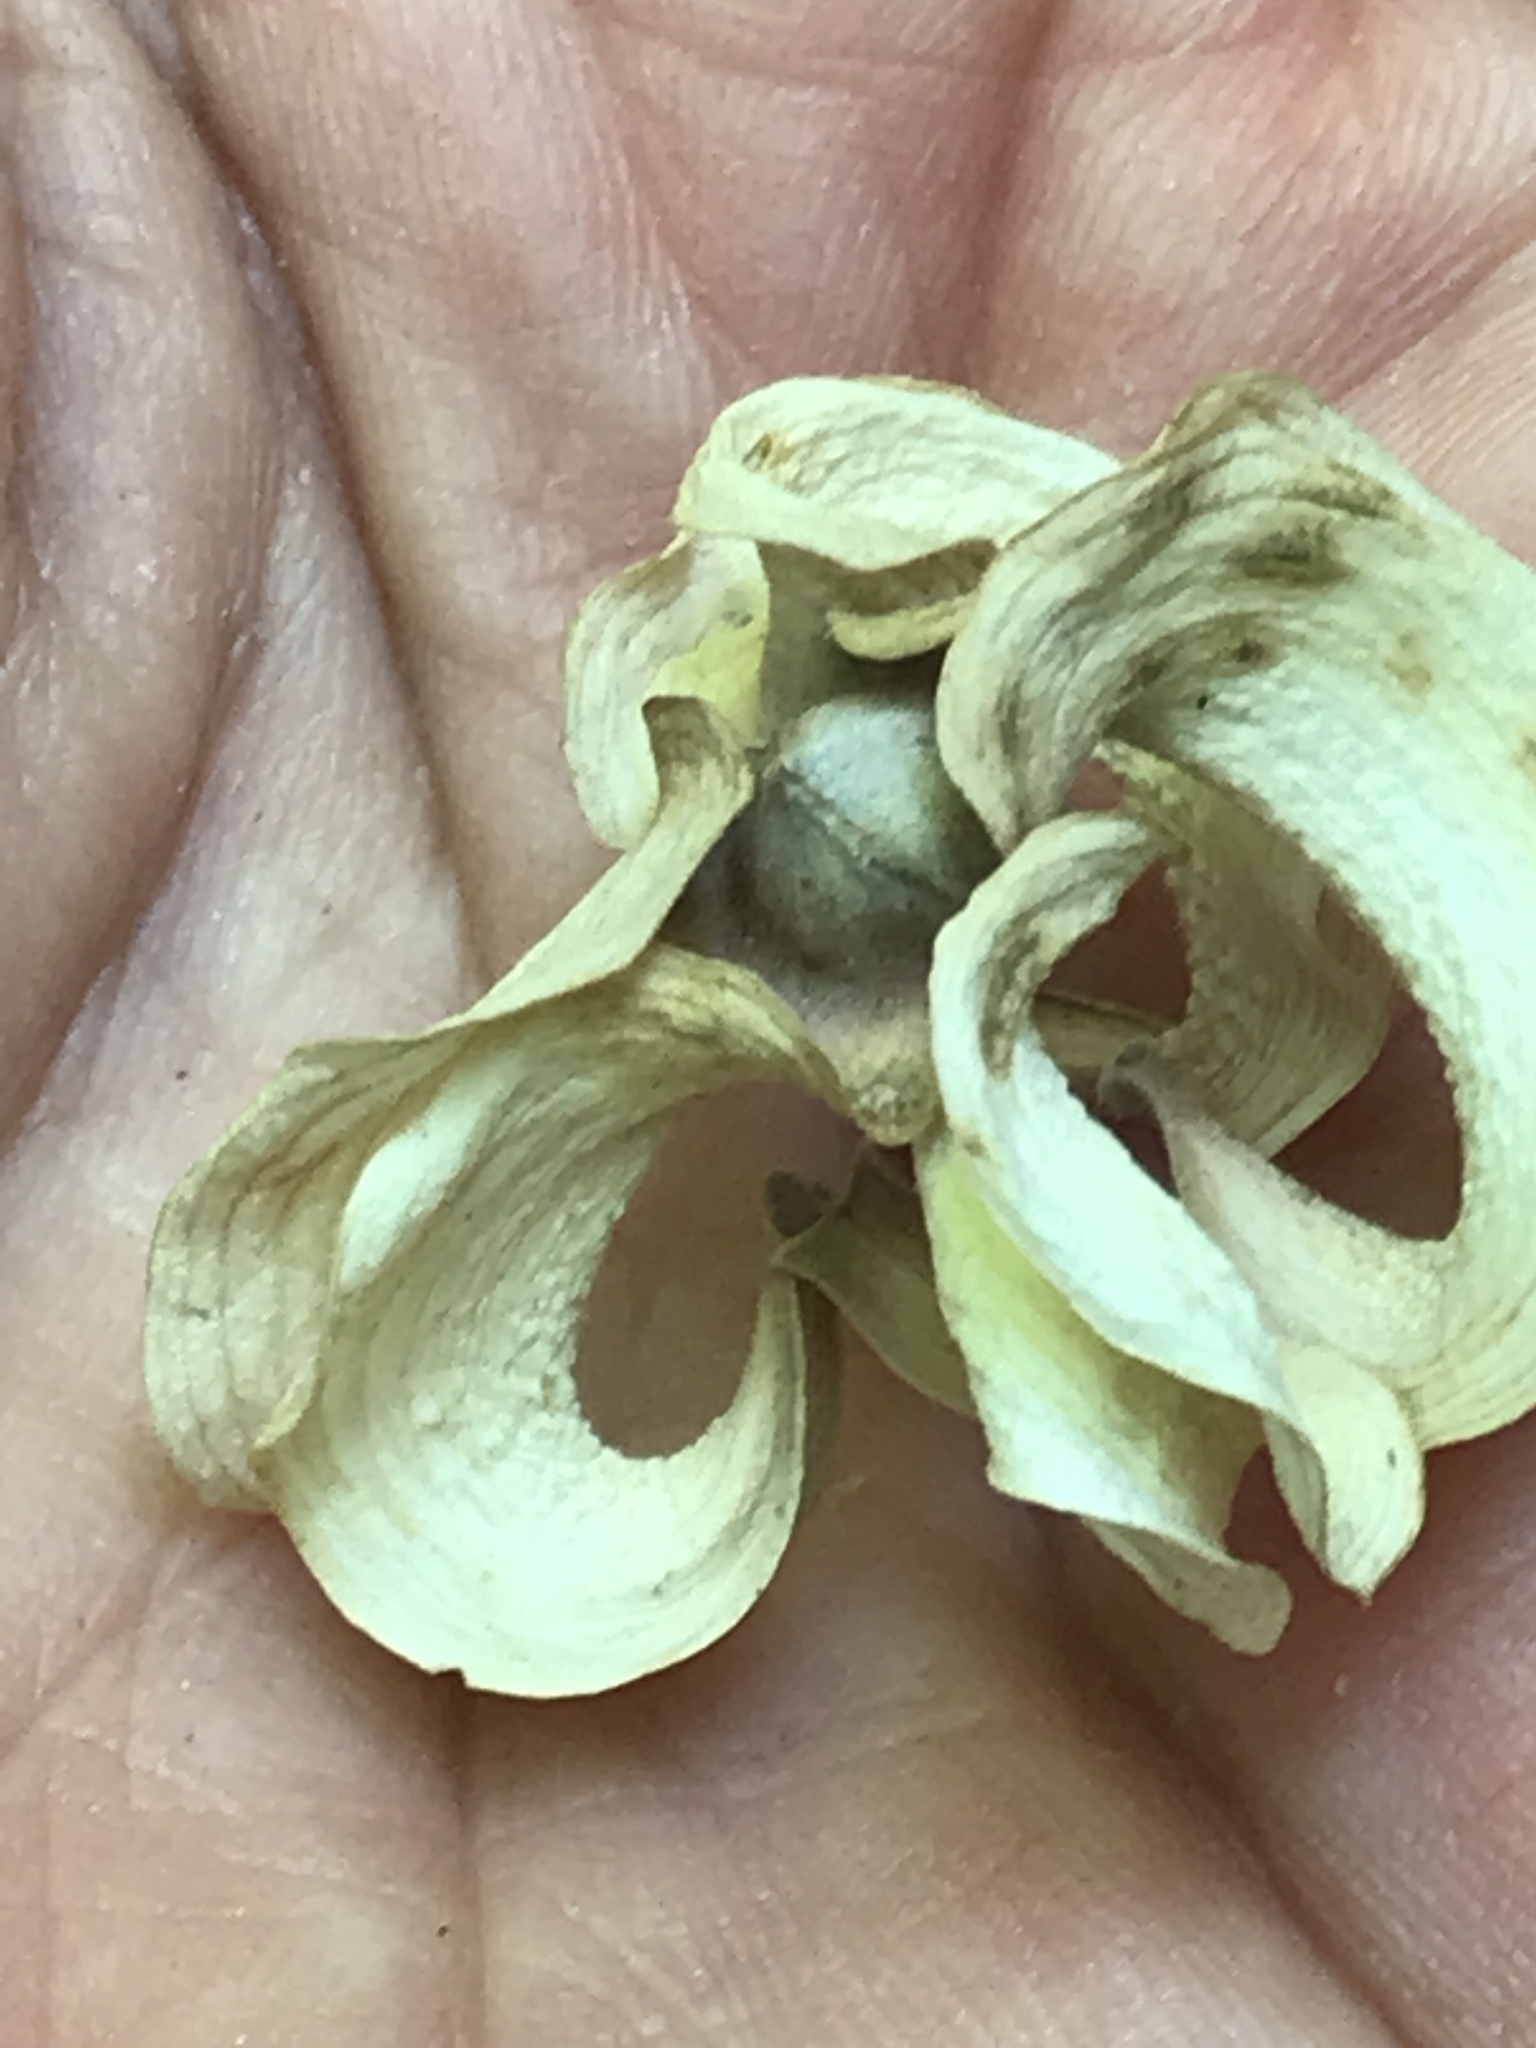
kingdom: Plantae
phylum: Tracheophyta
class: Magnoliopsida
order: Cornales
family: Cornaceae
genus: Cornus
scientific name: Cornus florida
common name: Flowering dogwood
